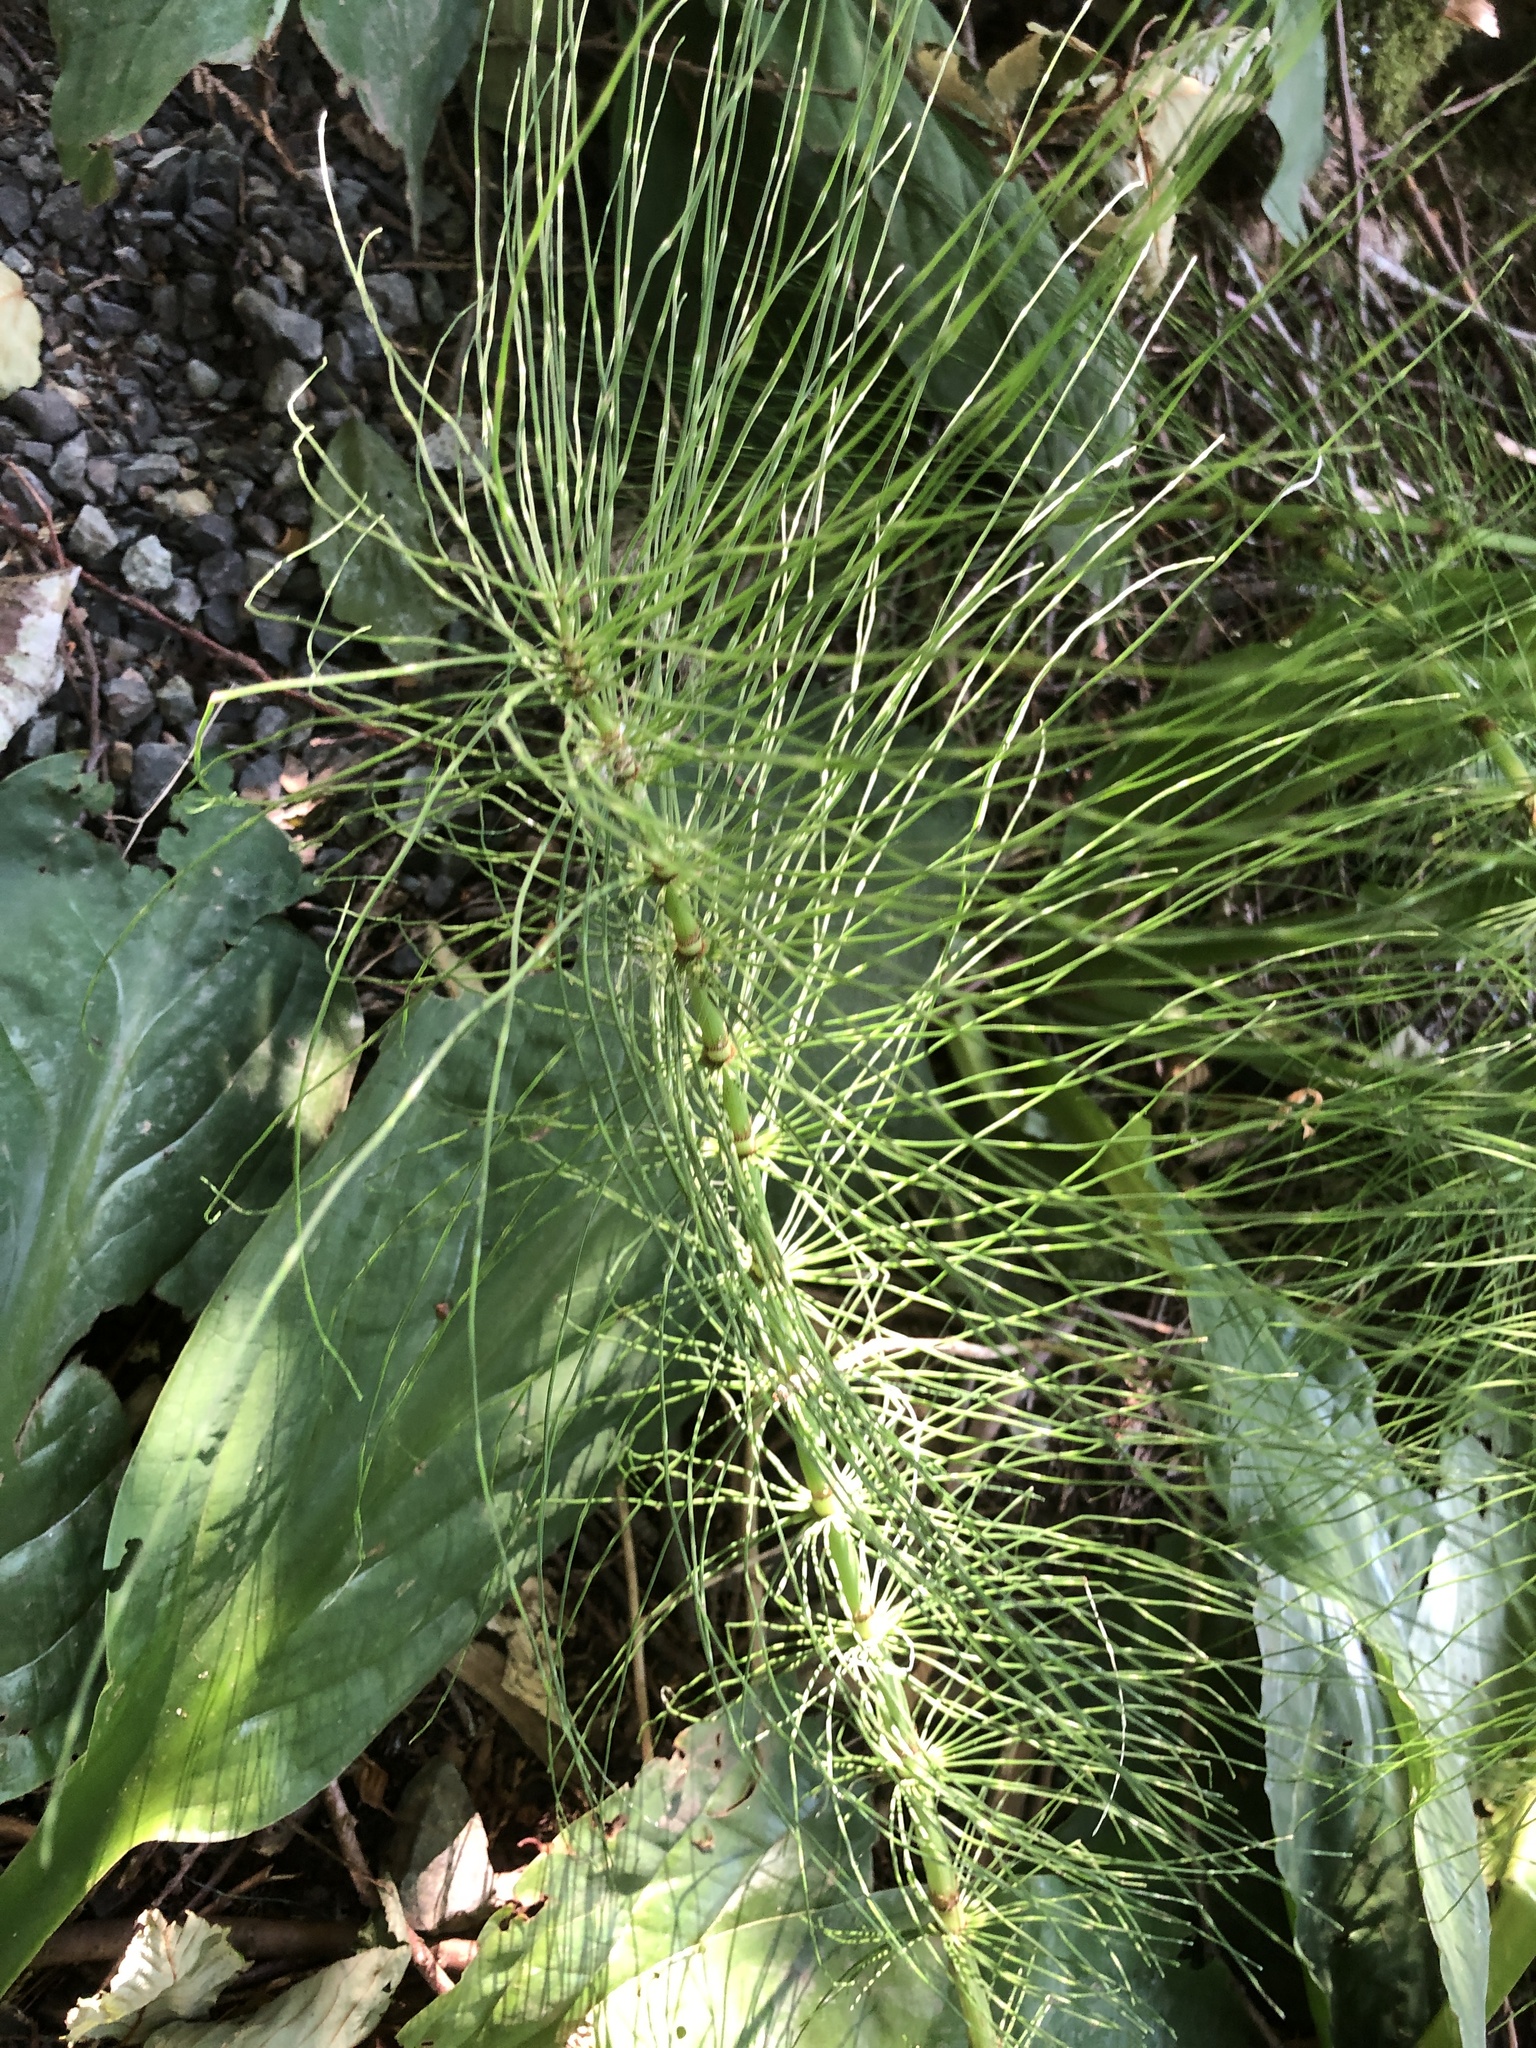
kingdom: Plantae
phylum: Tracheophyta
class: Polypodiopsida
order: Equisetales
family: Equisetaceae
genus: Equisetum
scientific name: Equisetum telmateia
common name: Great horsetail
